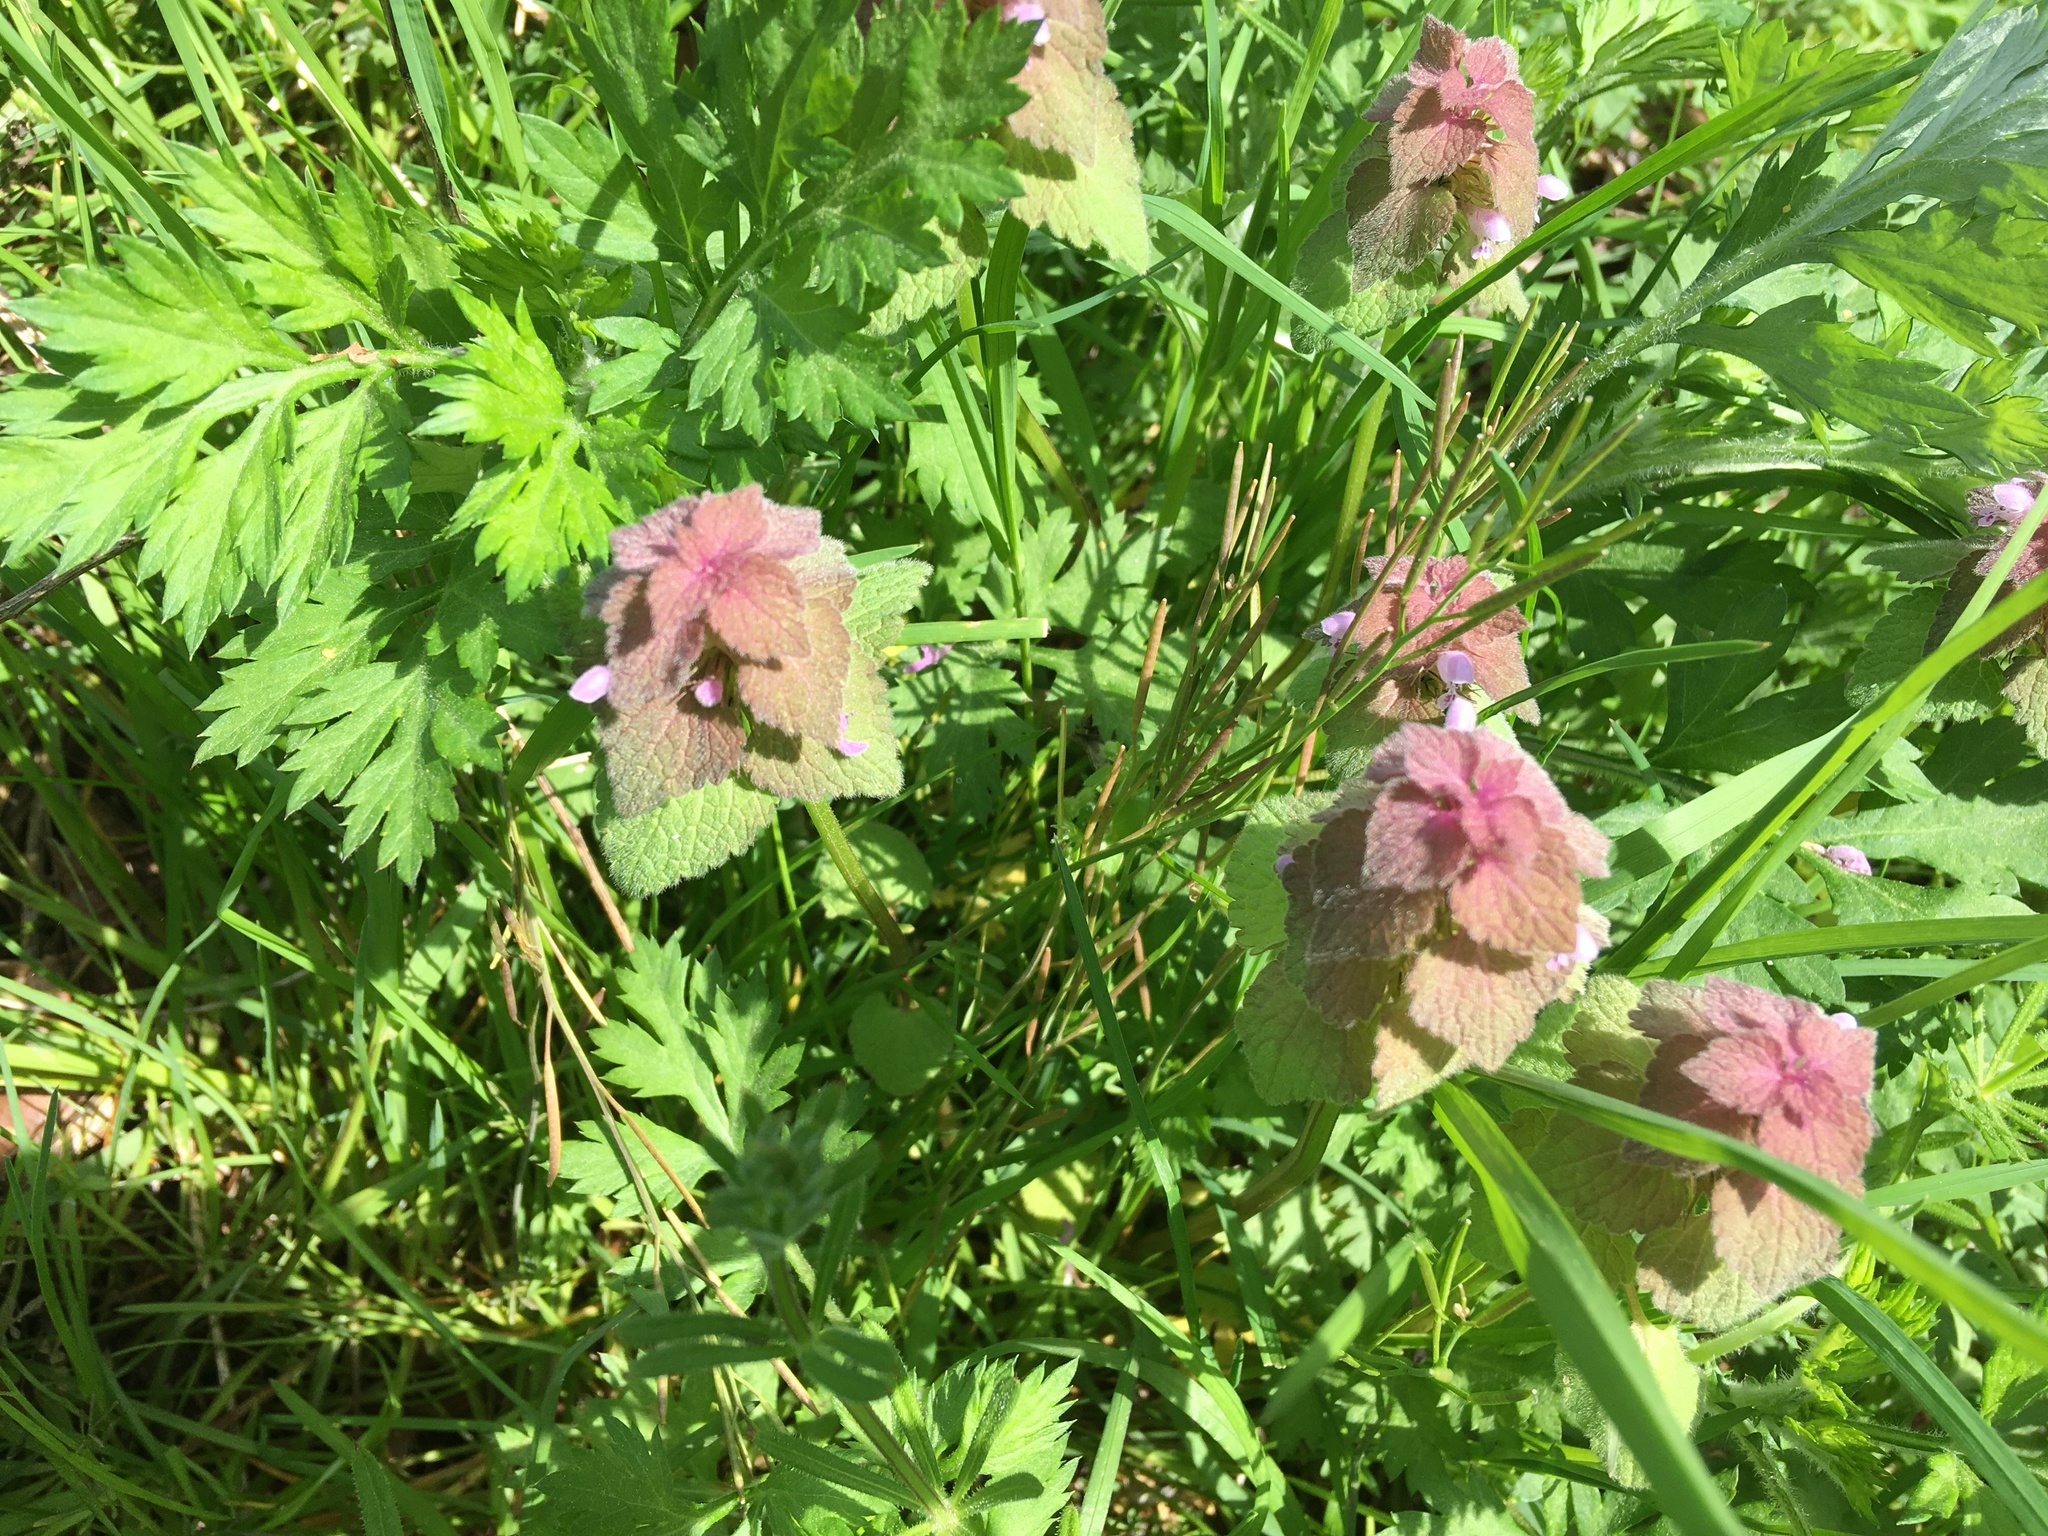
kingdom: Plantae
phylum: Tracheophyta
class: Magnoliopsida
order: Lamiales
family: Lamiaceae
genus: Lamium
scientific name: Lamium purpureum
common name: Red dead-nettle
